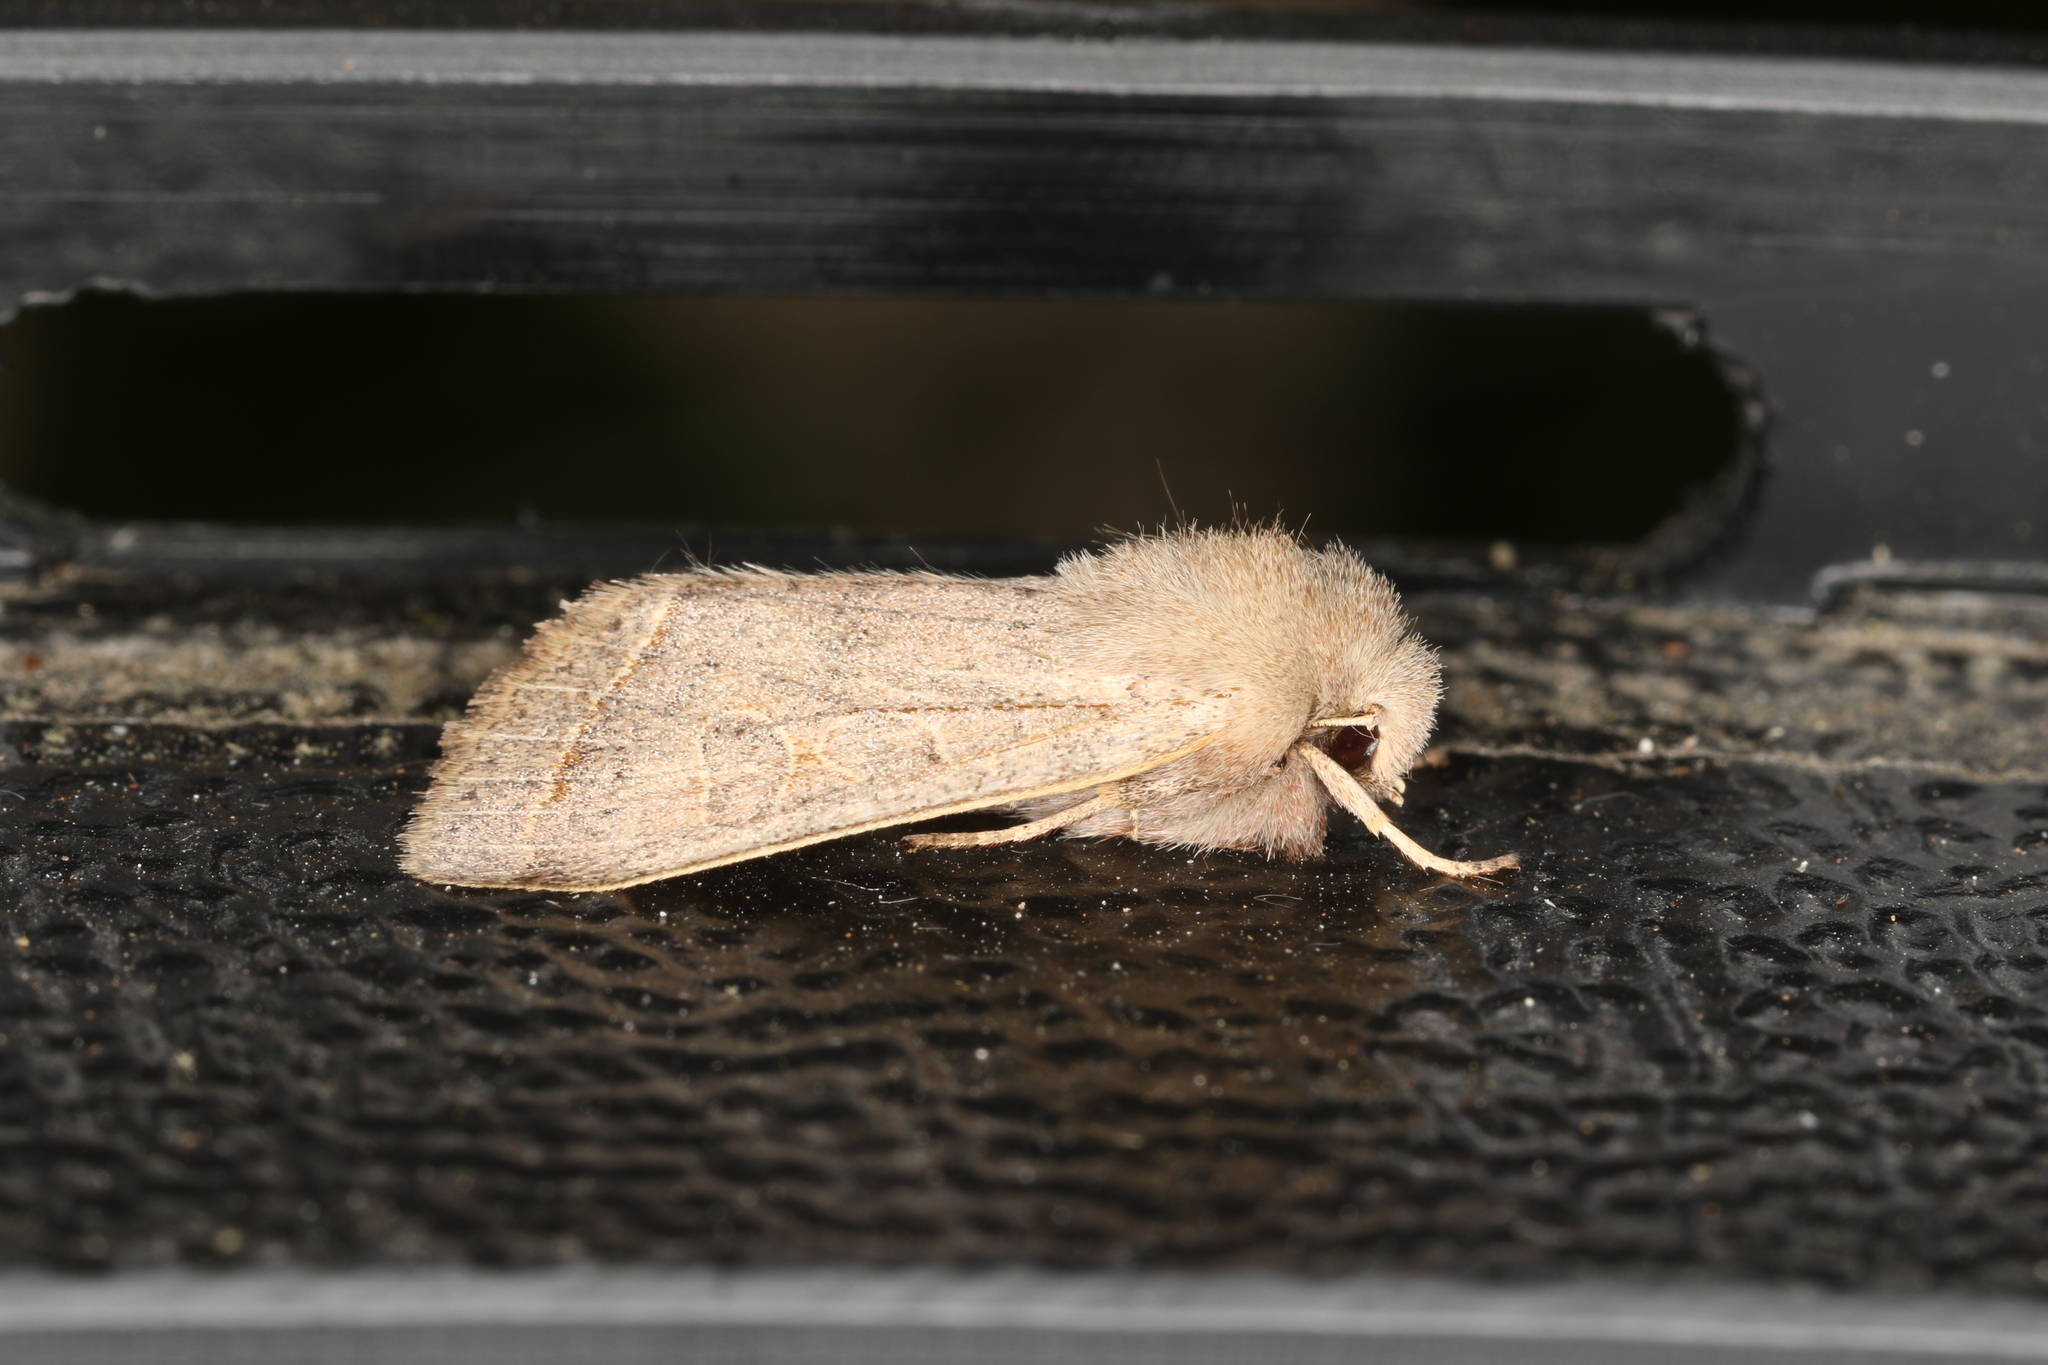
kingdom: Animalia
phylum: Arthropoda
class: Insecta
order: Lepidoptera
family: Noctuidae
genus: Orthosia
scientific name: Orthosia cerasi
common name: Common quaker
